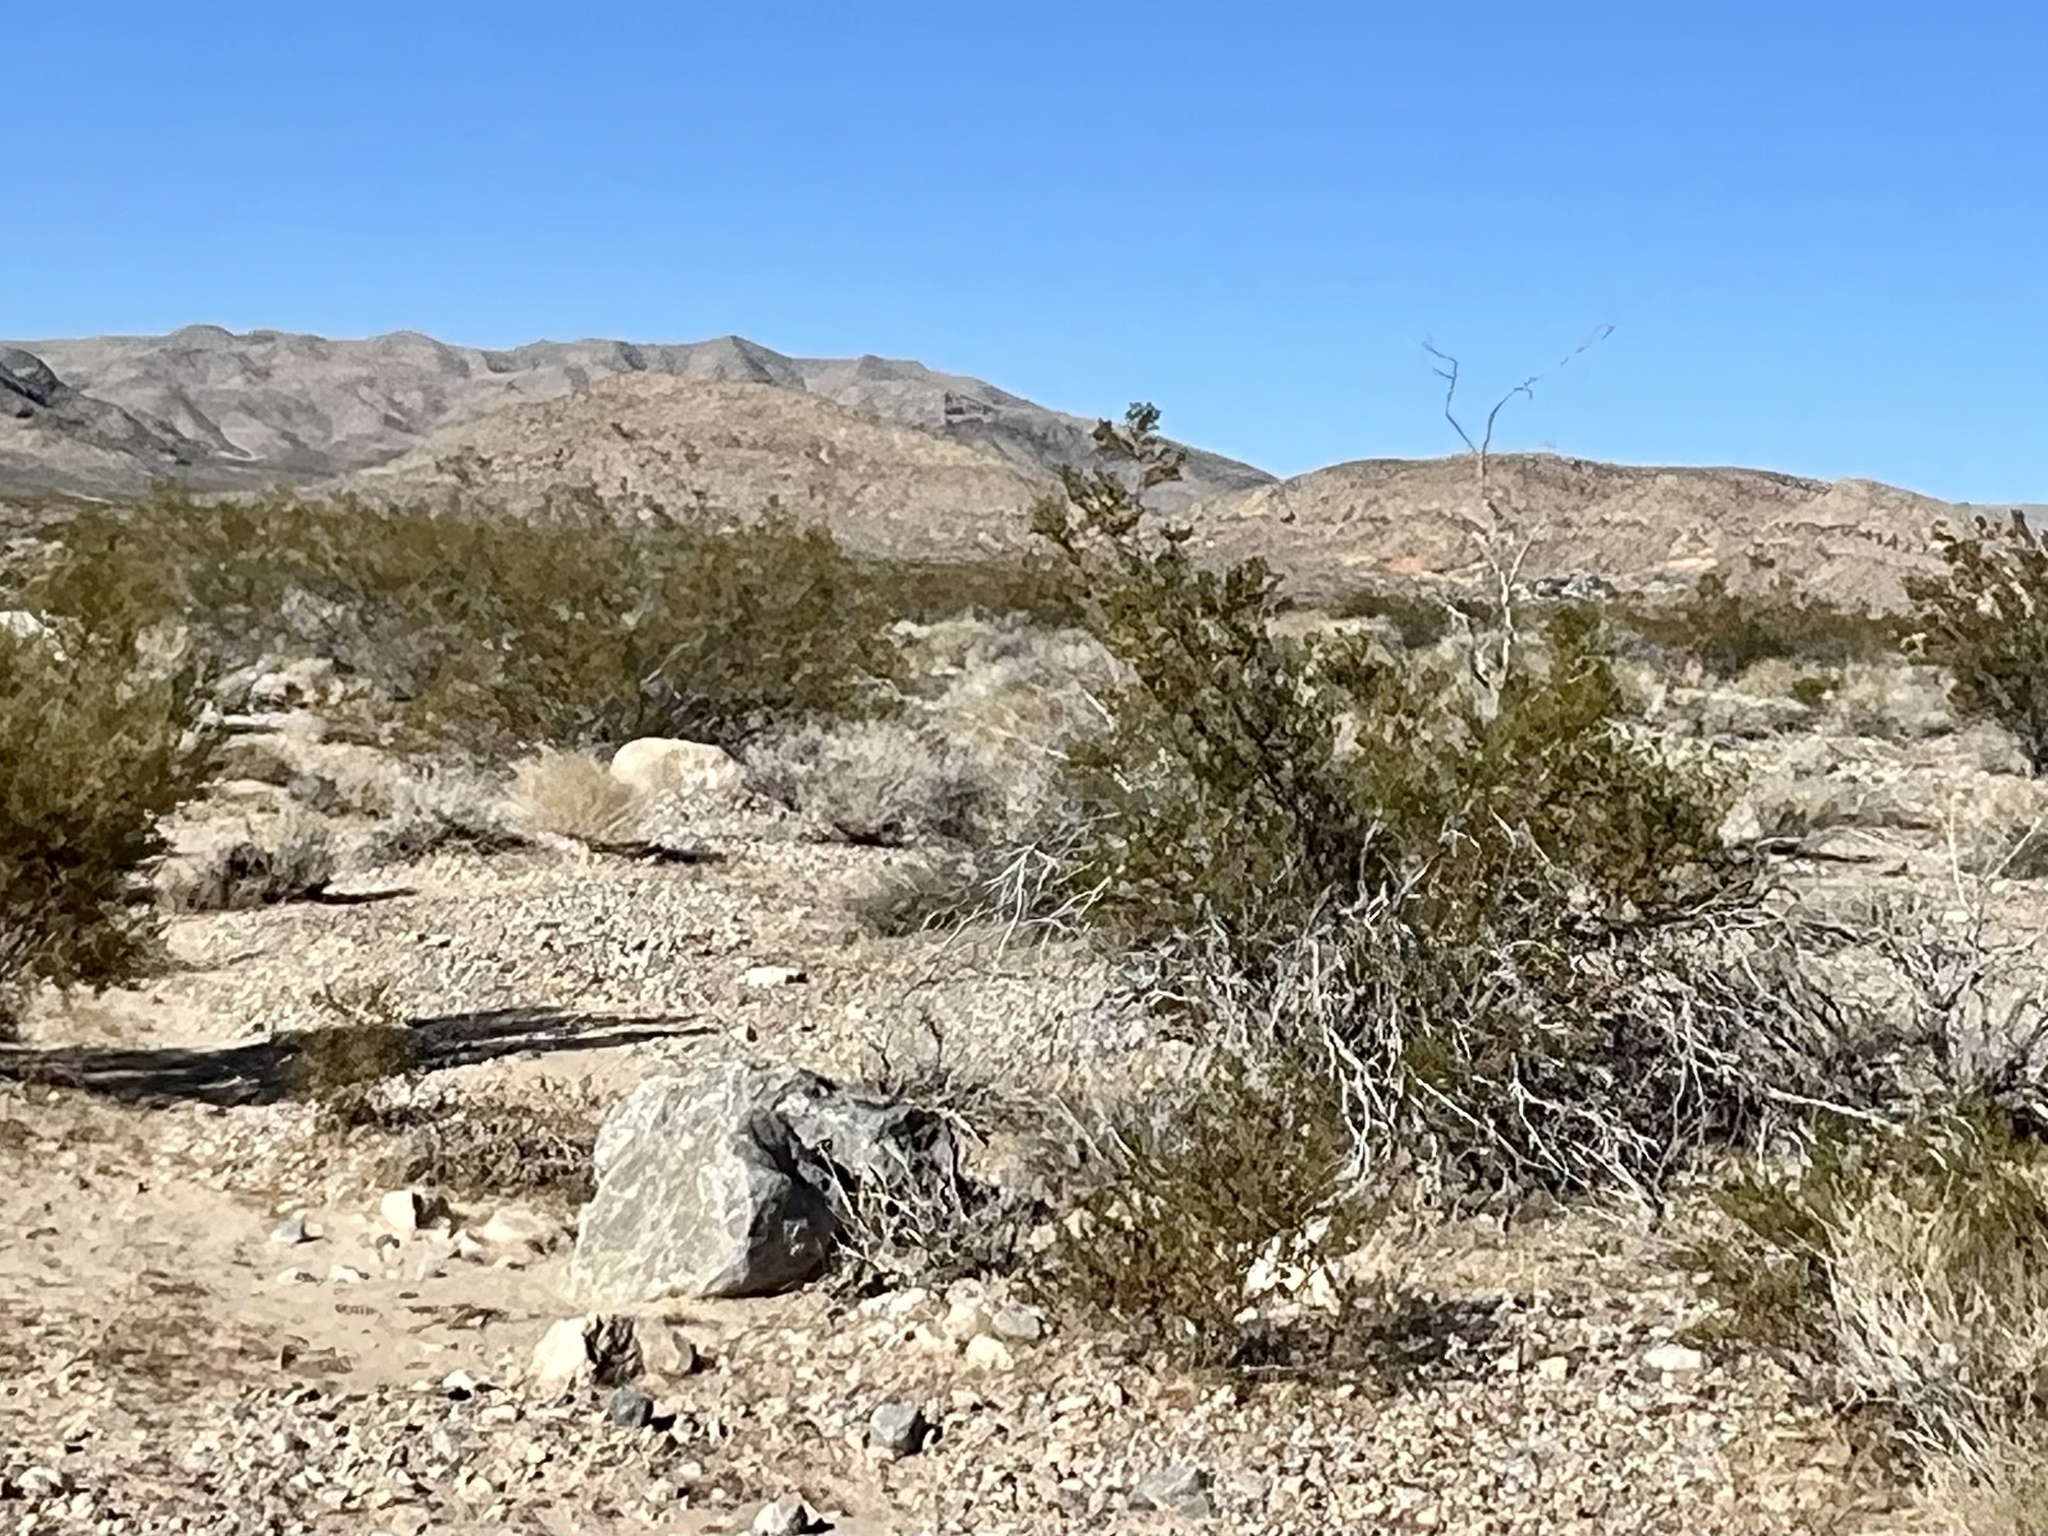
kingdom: Plantae
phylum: Tracheophyta
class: Magnoliopsida
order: Zygophyllales
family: Zygophyllaceae
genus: Larrea
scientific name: Larrea tridentata
